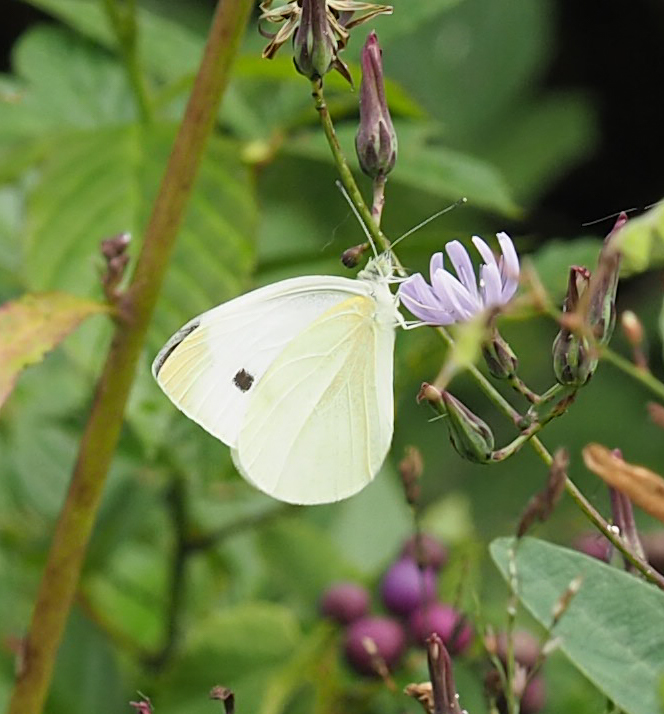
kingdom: Animalia
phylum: Arthropoda
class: Insecta
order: Lepidoptera
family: Pieridae
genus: Pieris
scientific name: Pieris rapae
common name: Small white
